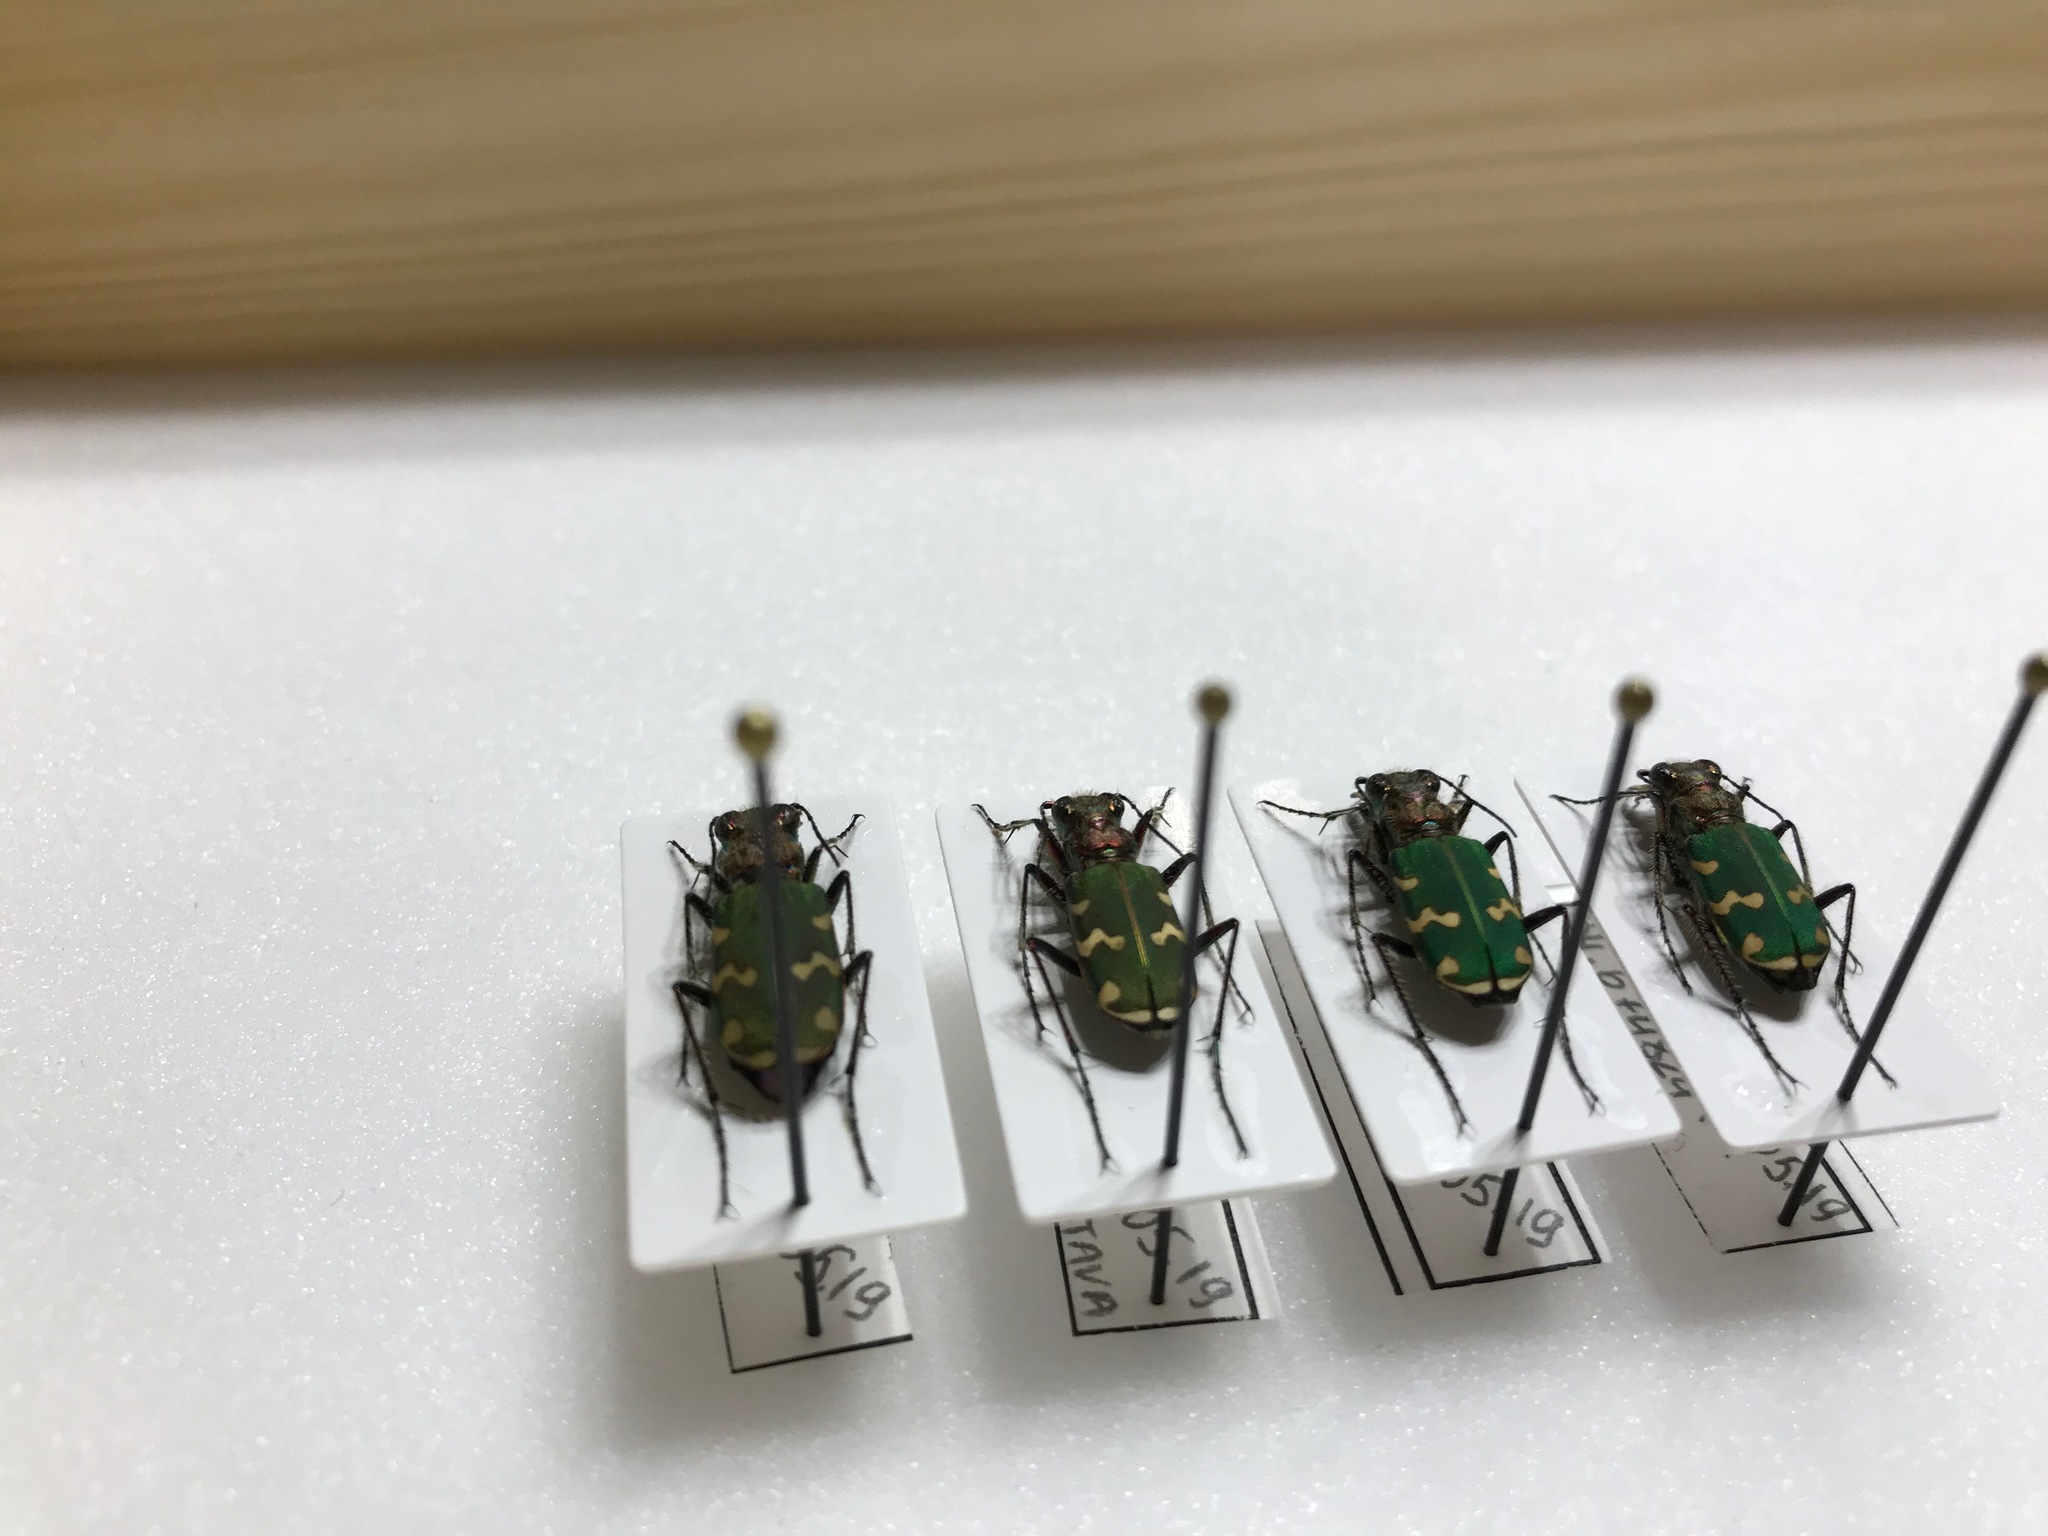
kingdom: Animalia
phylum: Arthropoda
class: Insecta
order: Coleoptera
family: Carabidae
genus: Cicindela
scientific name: Cicindela soluta
